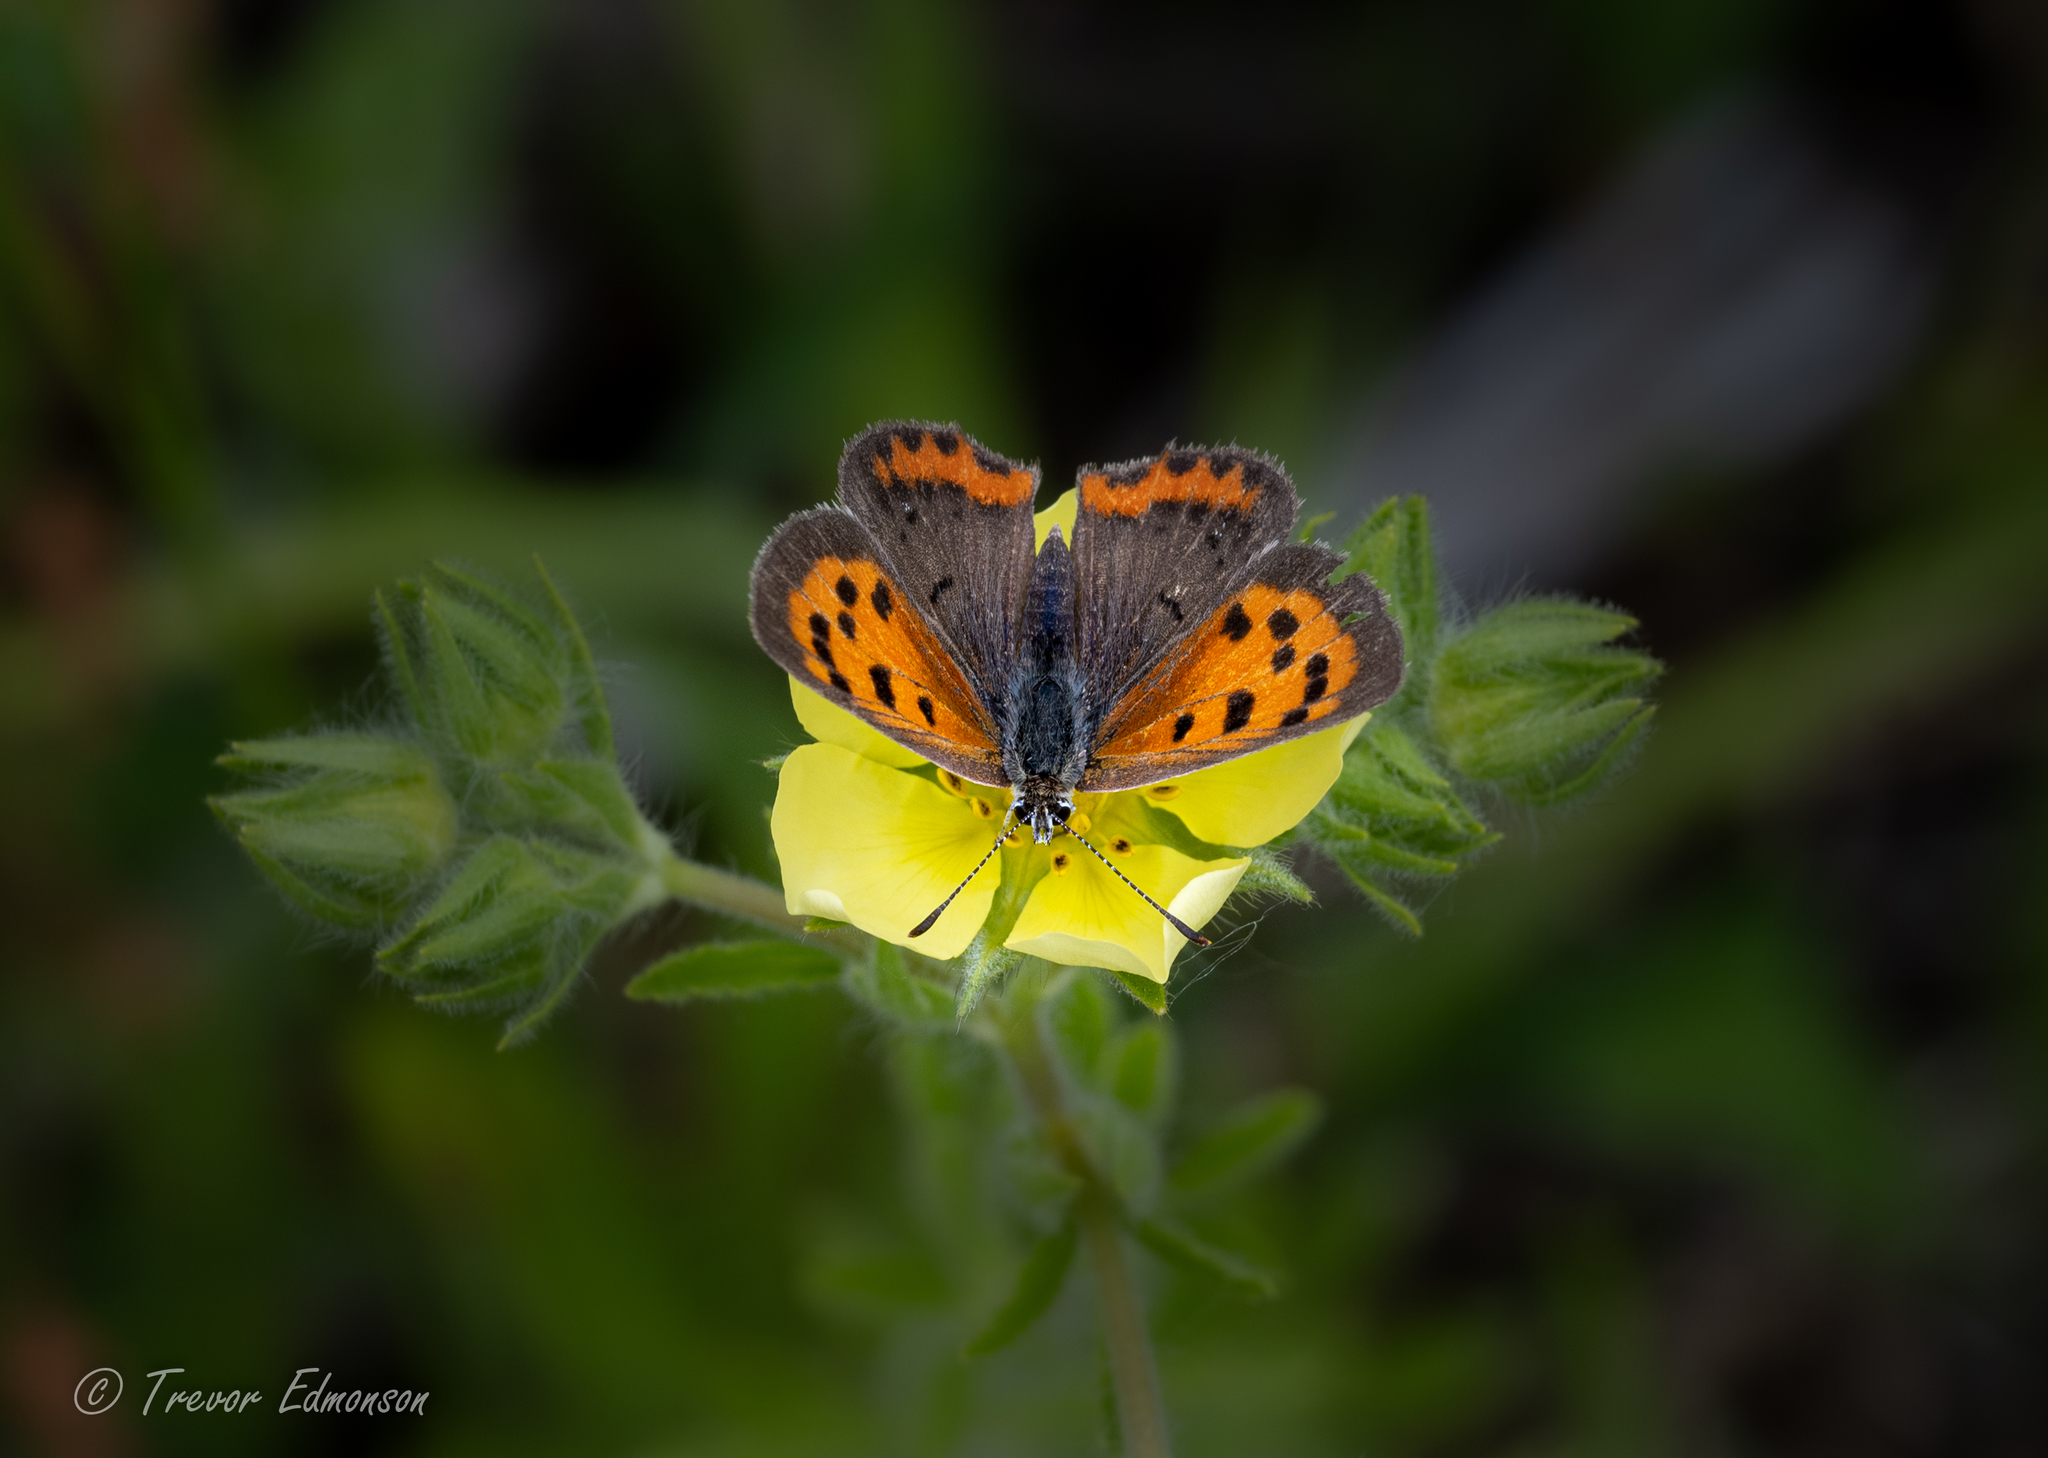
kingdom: Animalia
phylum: Arthropoda
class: Insecta
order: Lepidoptera
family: Lycaenidae
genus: Lycaena
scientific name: Lycaena hypophlaeas
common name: American copper
